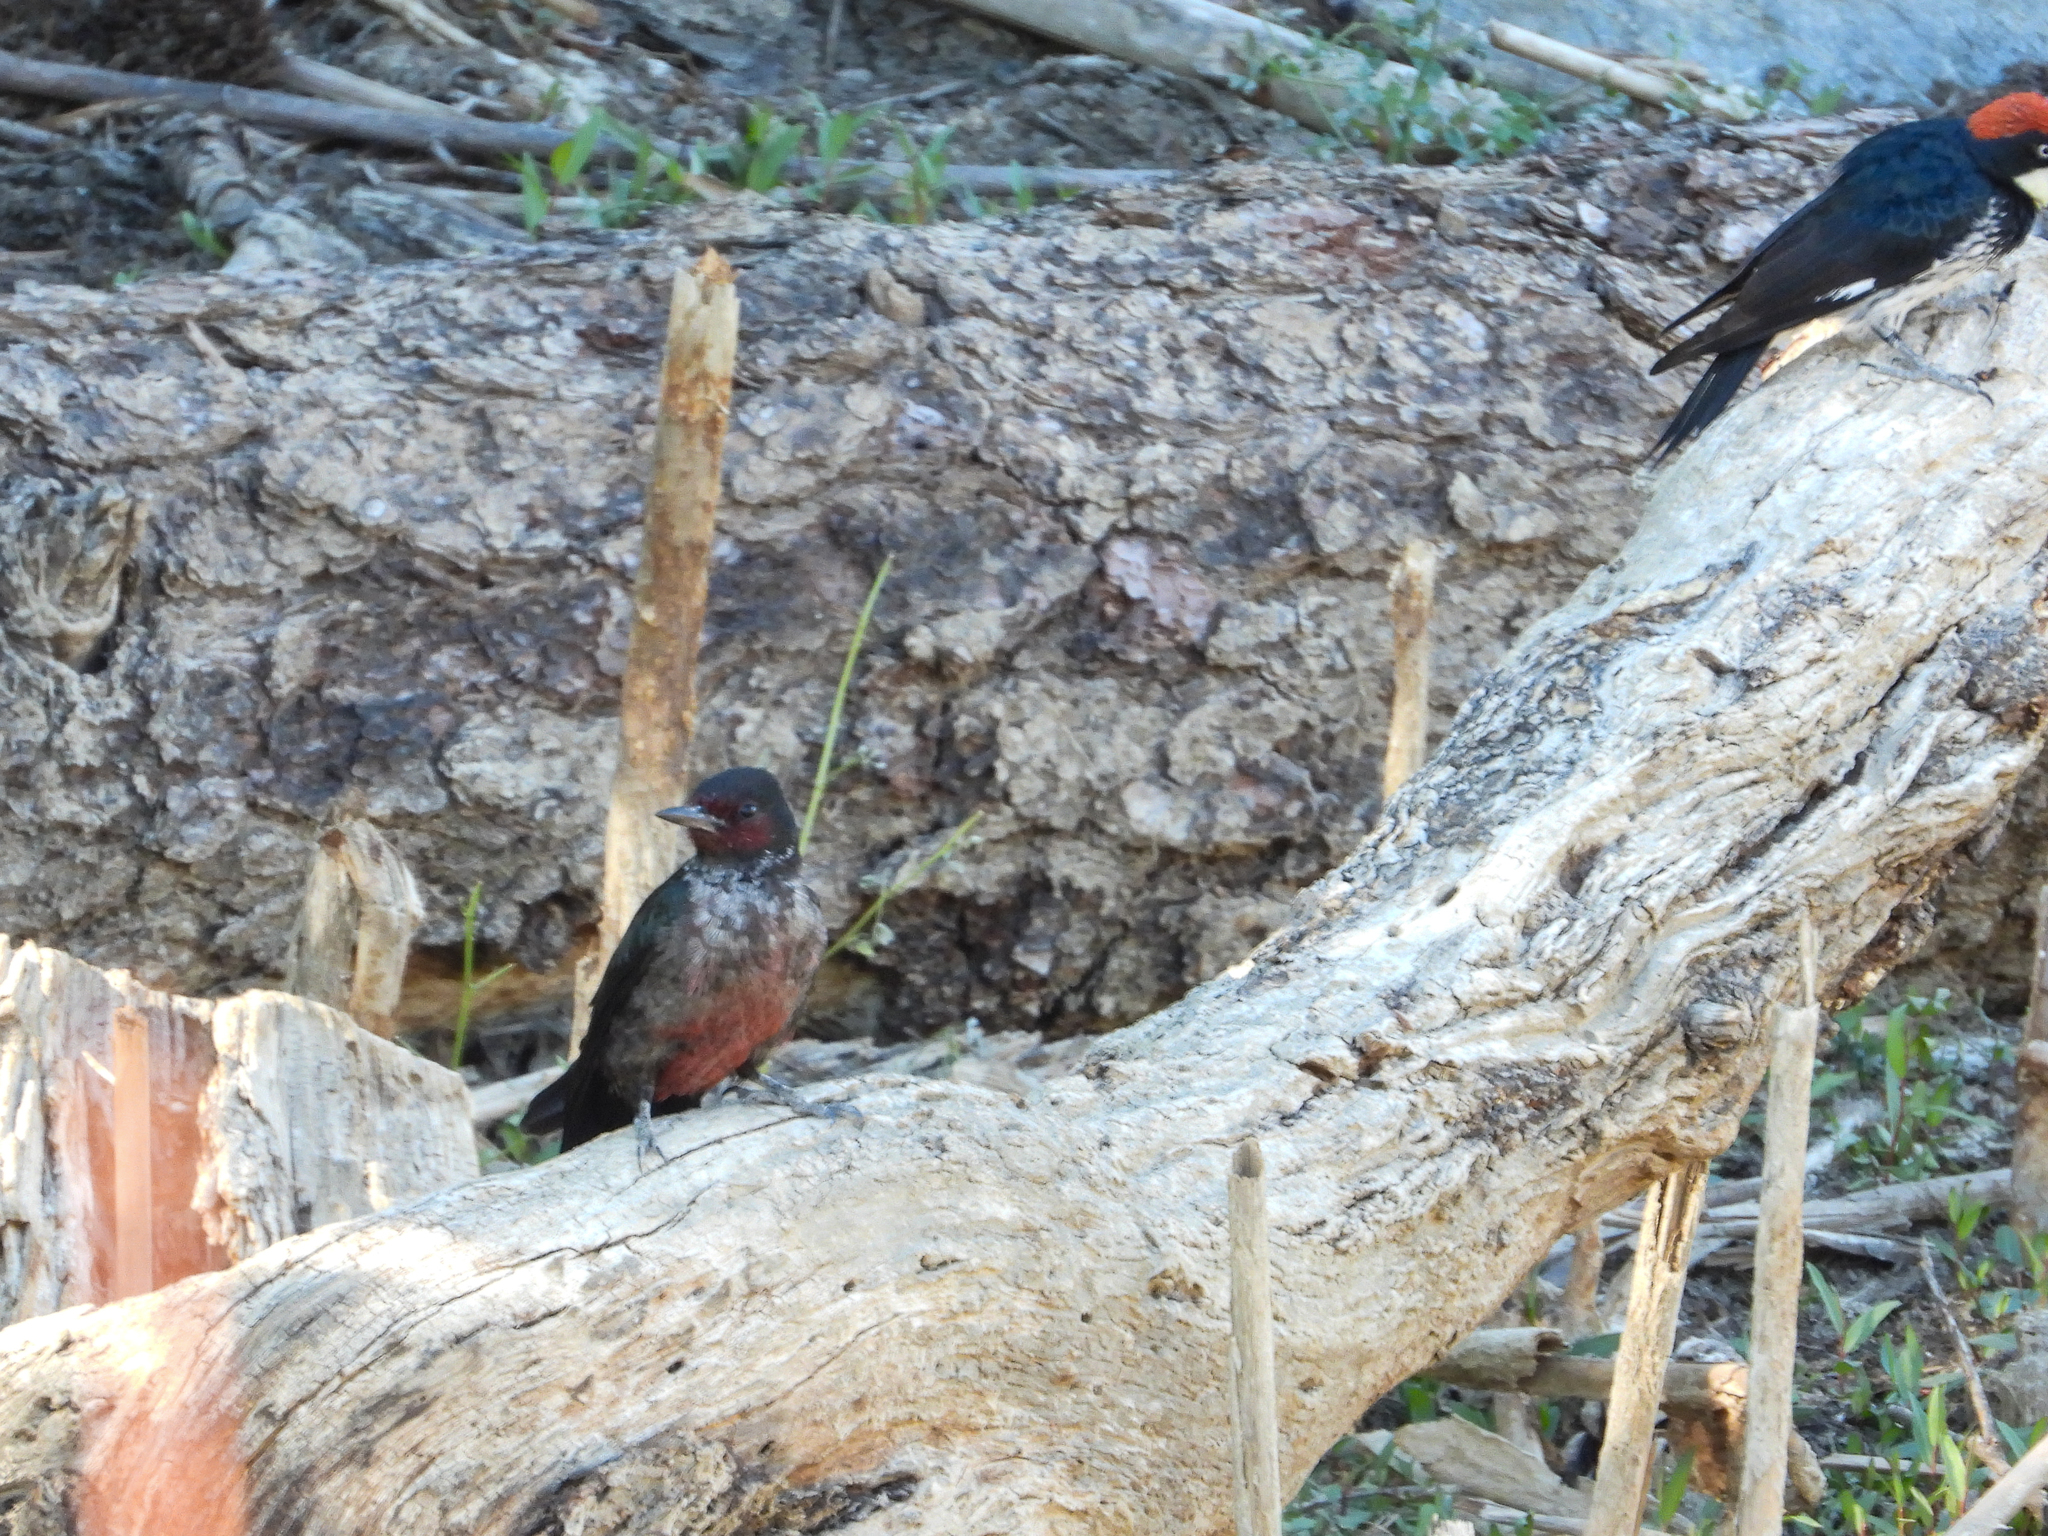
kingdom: Animalia
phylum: Chordata
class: Aves
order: Piciformes
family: Picidae
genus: Melanerpes
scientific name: Melanerpes lewis
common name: Lewis's woodpecker
